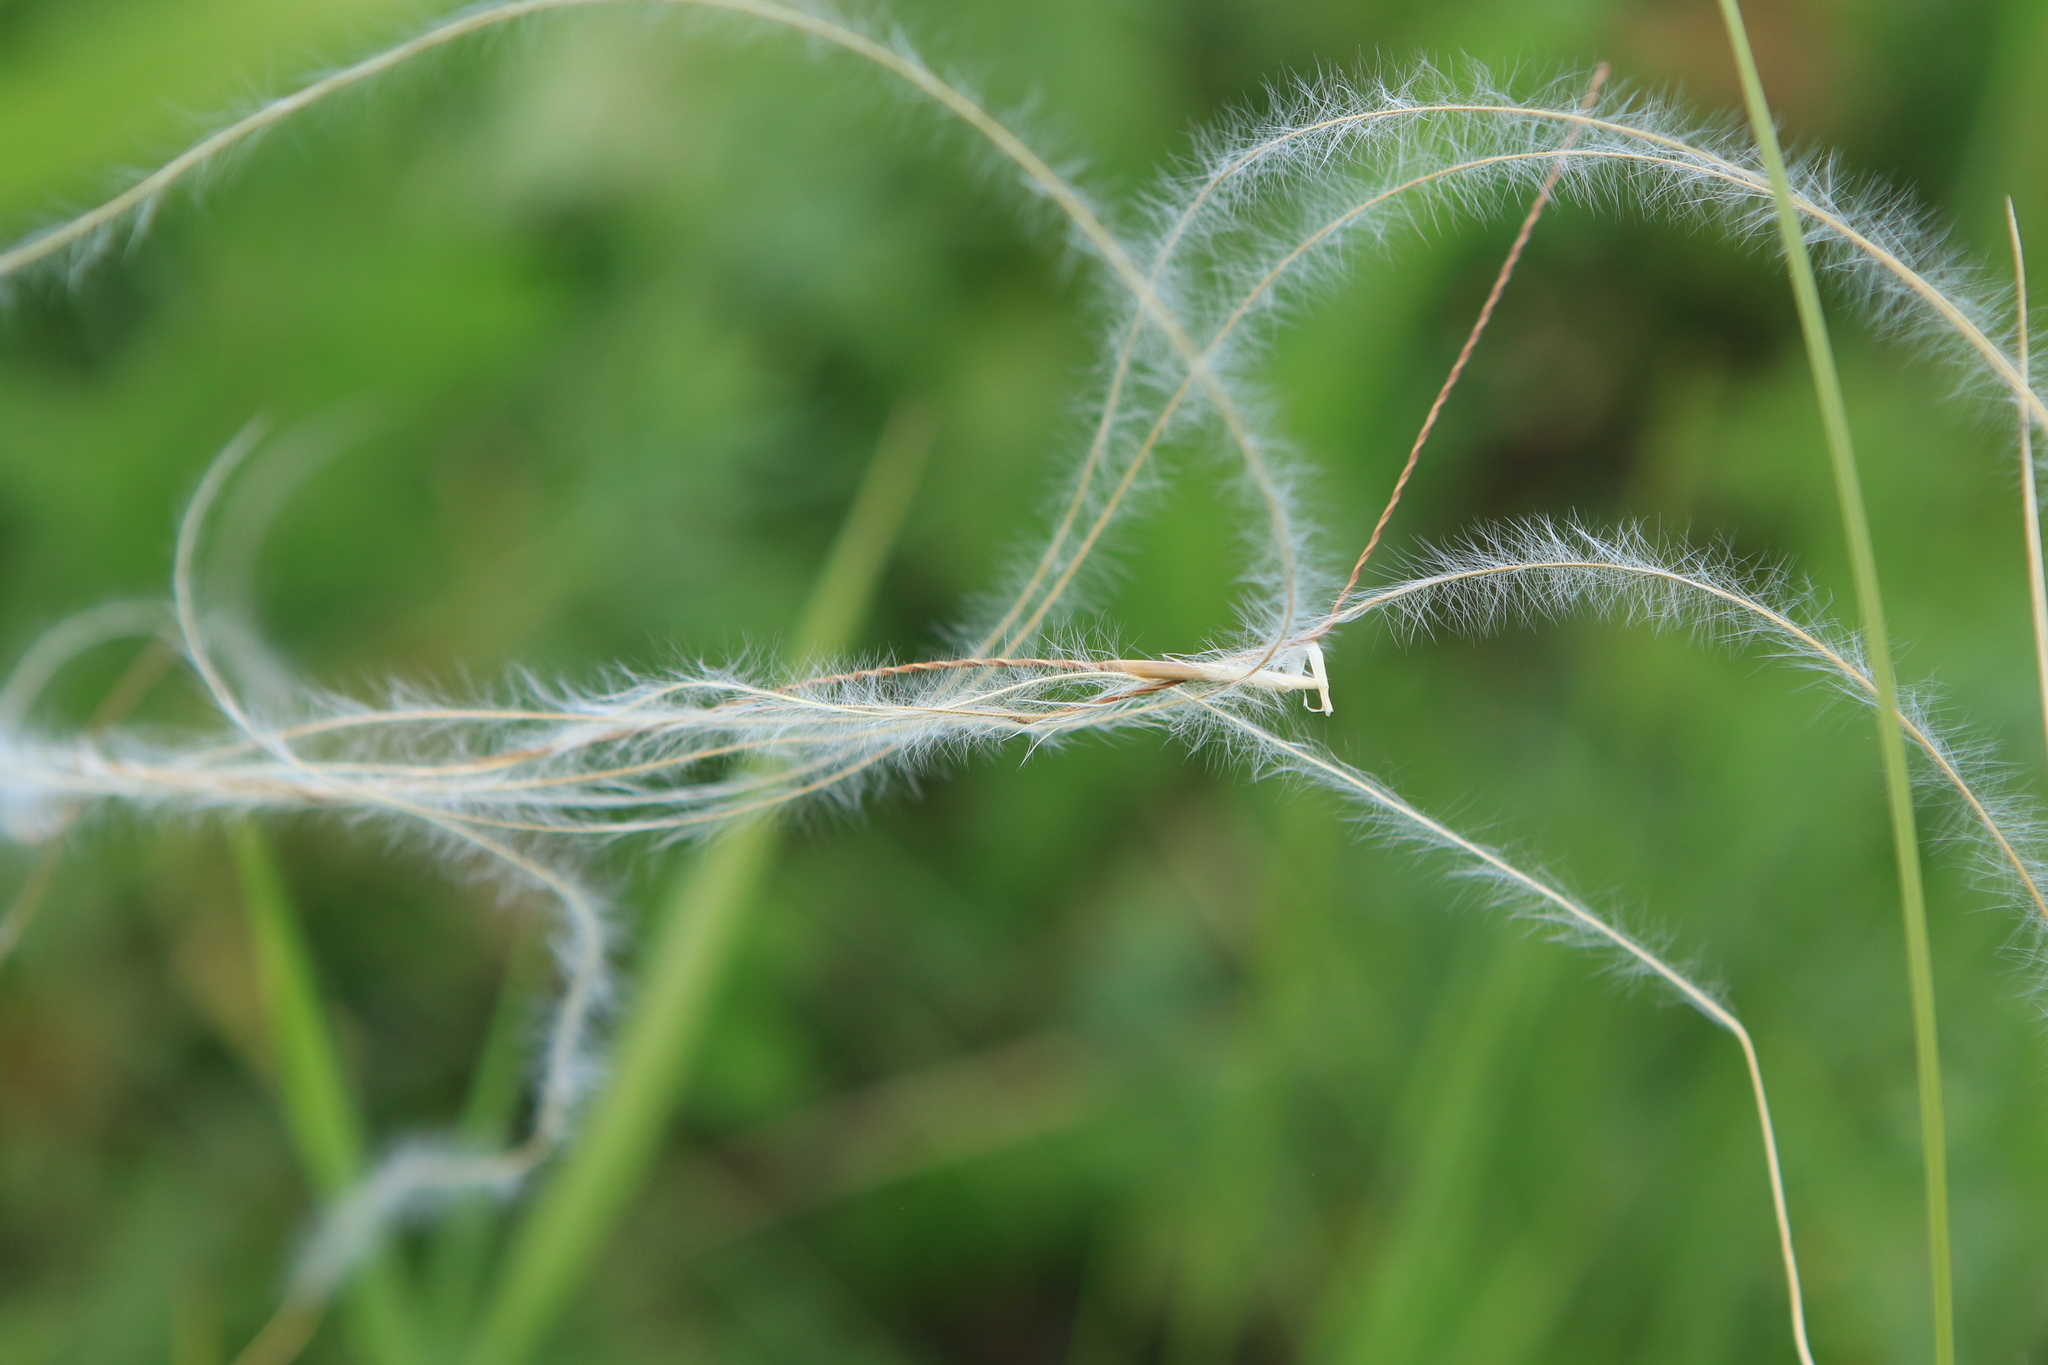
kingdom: Plantae
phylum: Tracheophyta
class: Liliopsida
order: Poales
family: Poaceae
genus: Stipa
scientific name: Stipa pennata
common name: European feather grass
